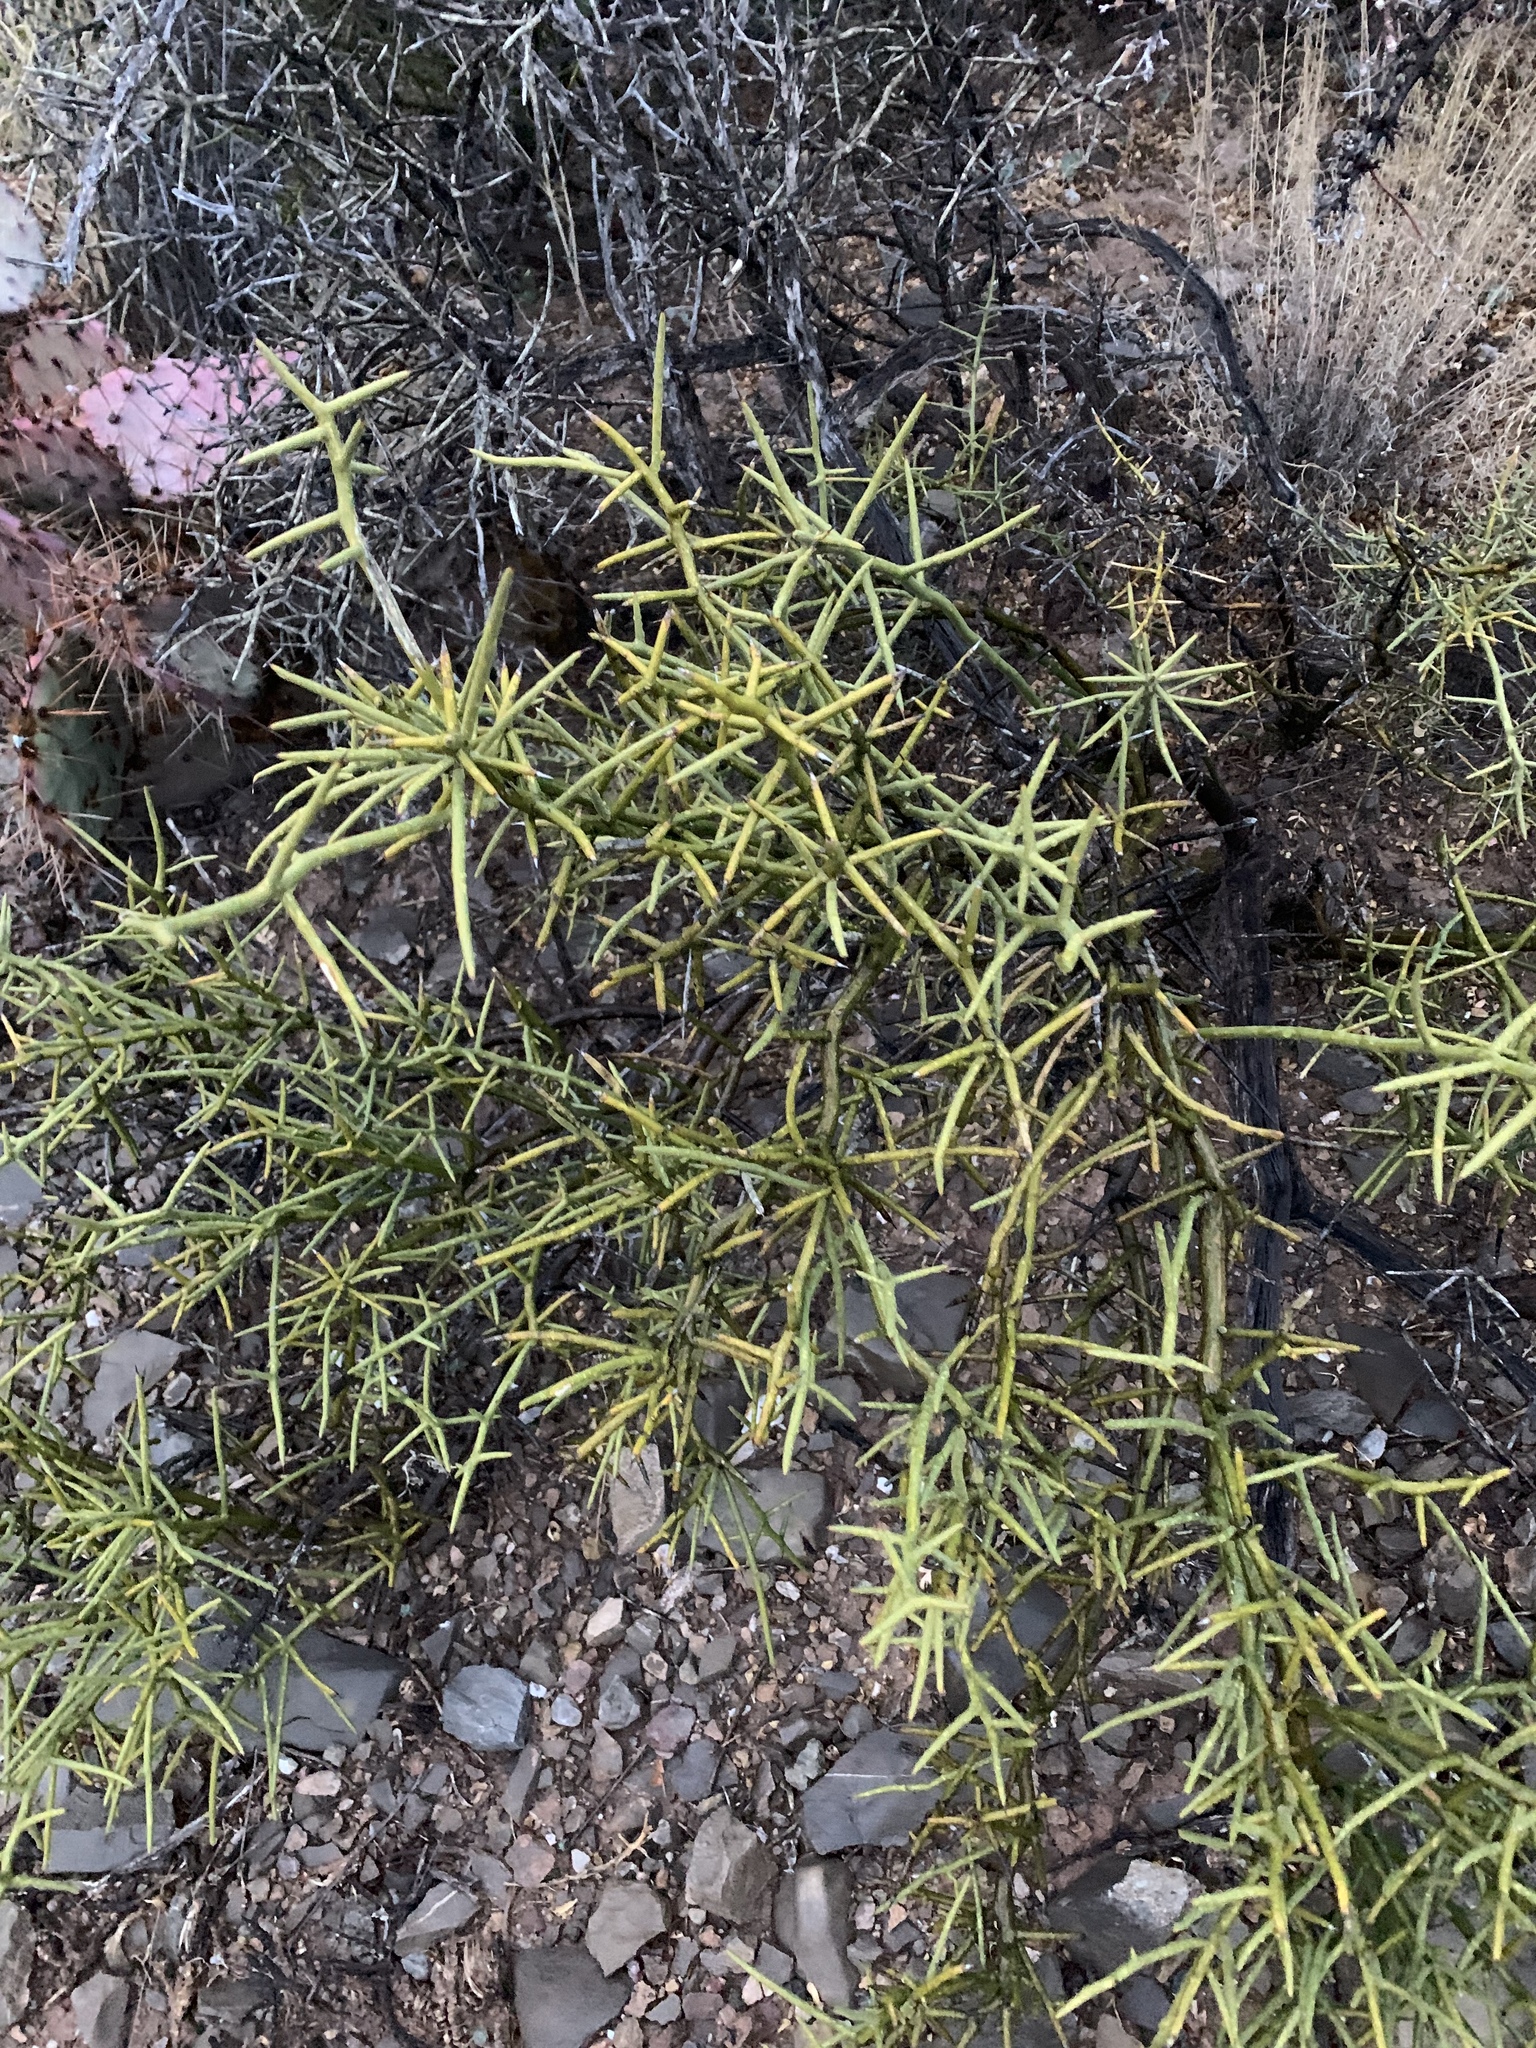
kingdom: Plantae
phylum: Tracheophyta
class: Magnoliopsida
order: Brassicales
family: Koeberliniaceae
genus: Koeberlinia
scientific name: Koeberlinia spinosa
